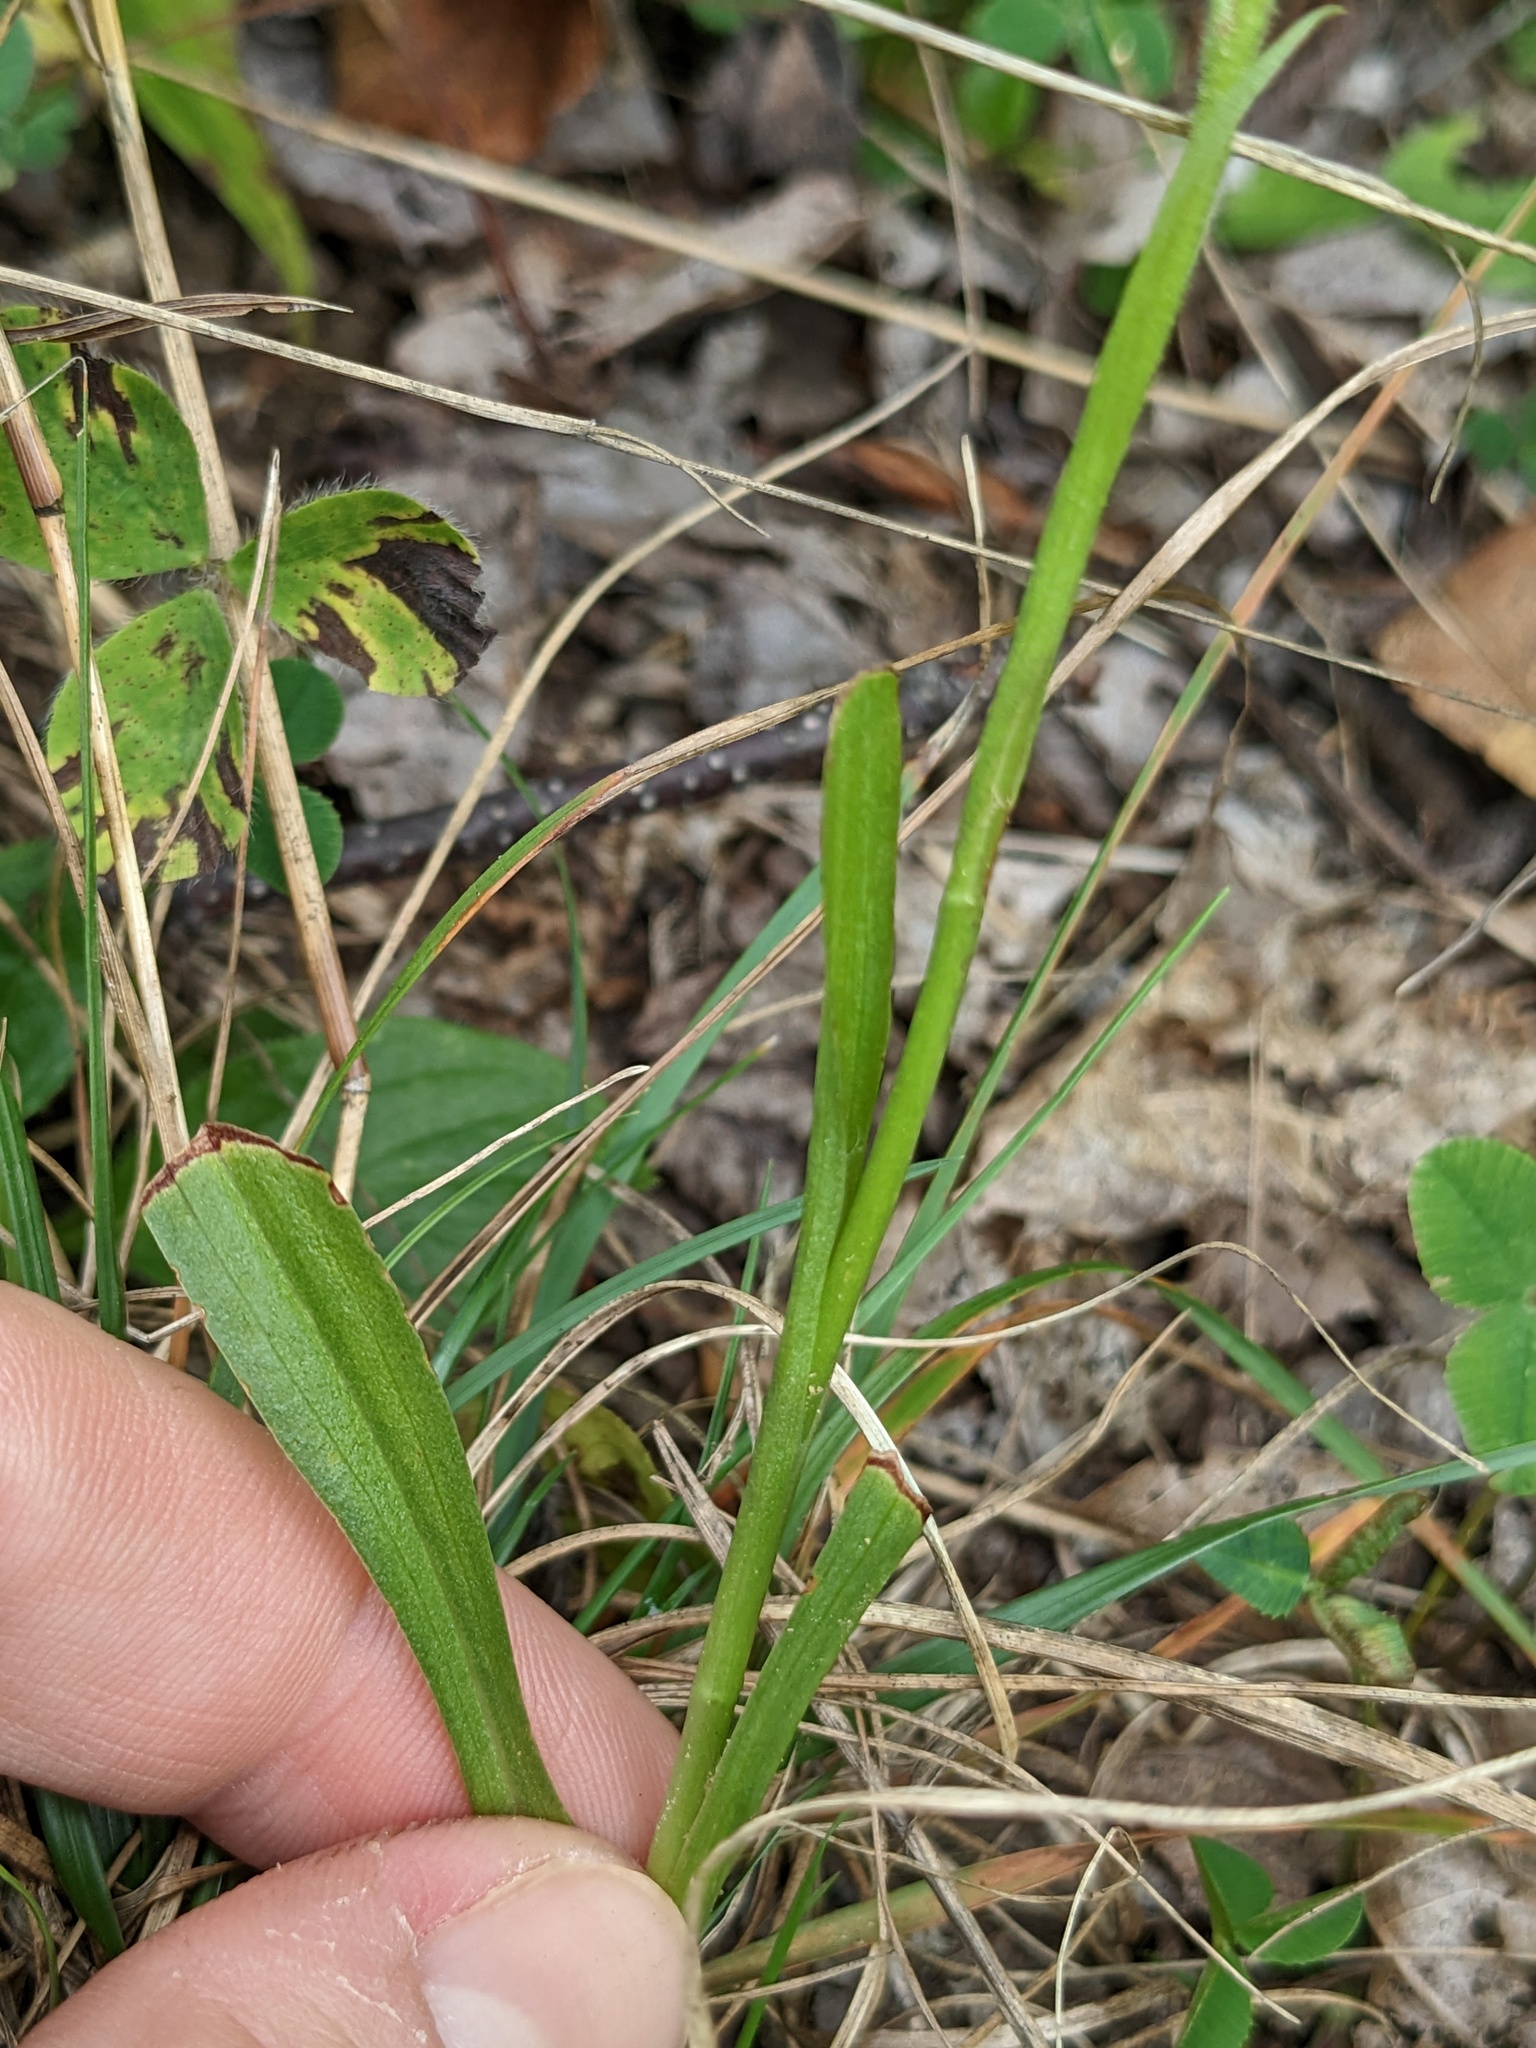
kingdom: Plantae
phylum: Tracheophyta
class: Liliopsida
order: Asparagales
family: Orchidaceae
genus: Spiranthes
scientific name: Spiranthes ochroleuca
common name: Yellow ladies'-tresses
